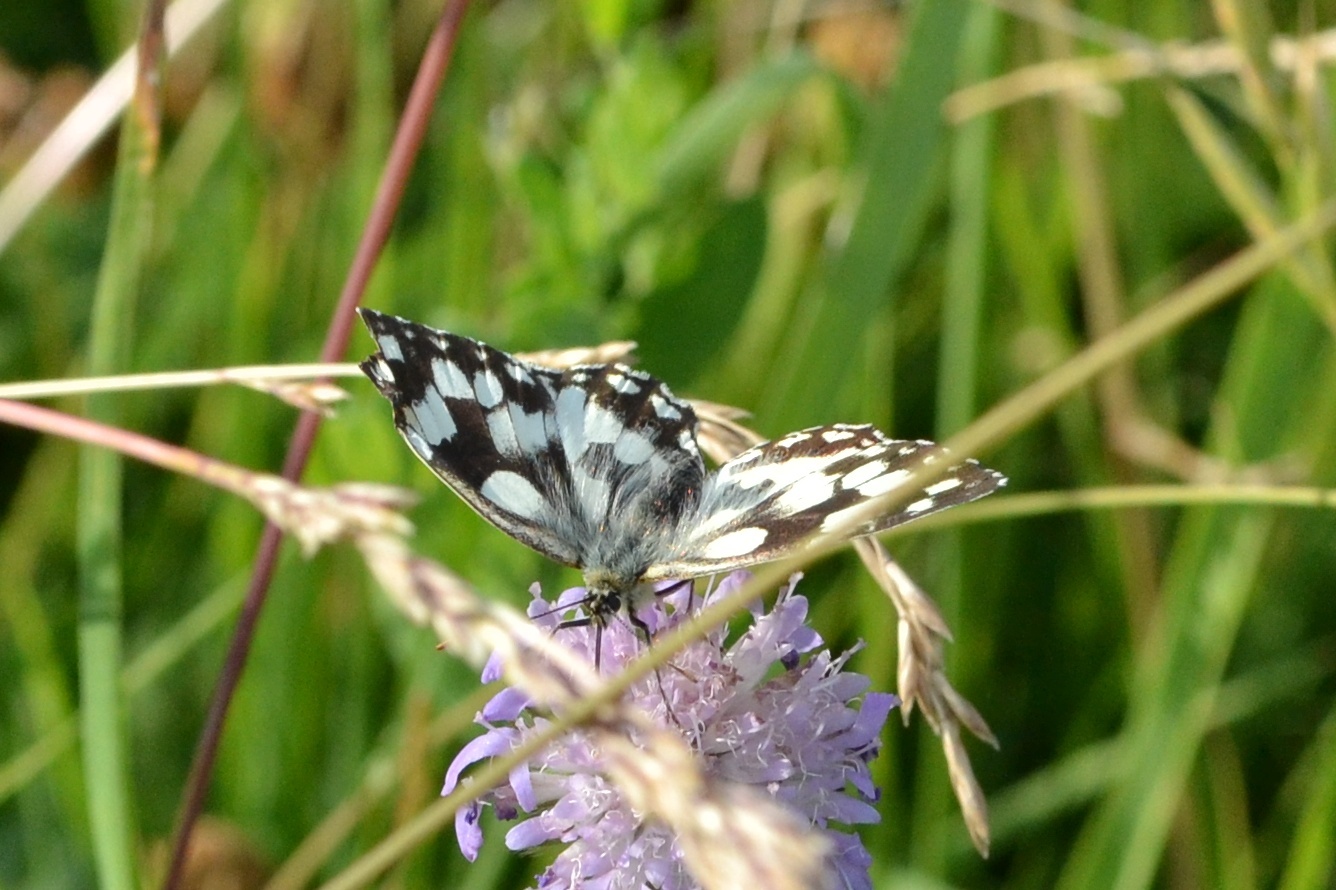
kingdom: Animalia
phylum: Arthropoda
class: Insecta
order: Lepidoptera
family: Nymphalidae
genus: Melanargia
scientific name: Melanargia galathea
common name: Marbled white
